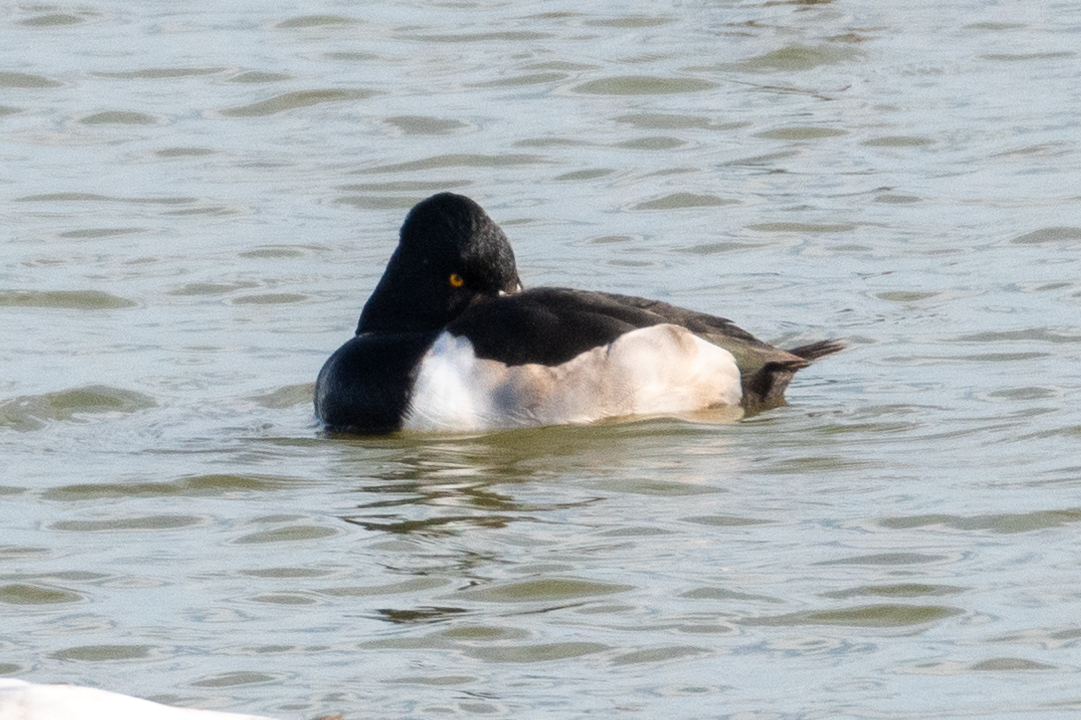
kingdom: Animalia
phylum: Chordata
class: Aves
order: Anseriformes
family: Anatidae
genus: Aythya
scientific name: Aythya collaris
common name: Ring-necked duck
